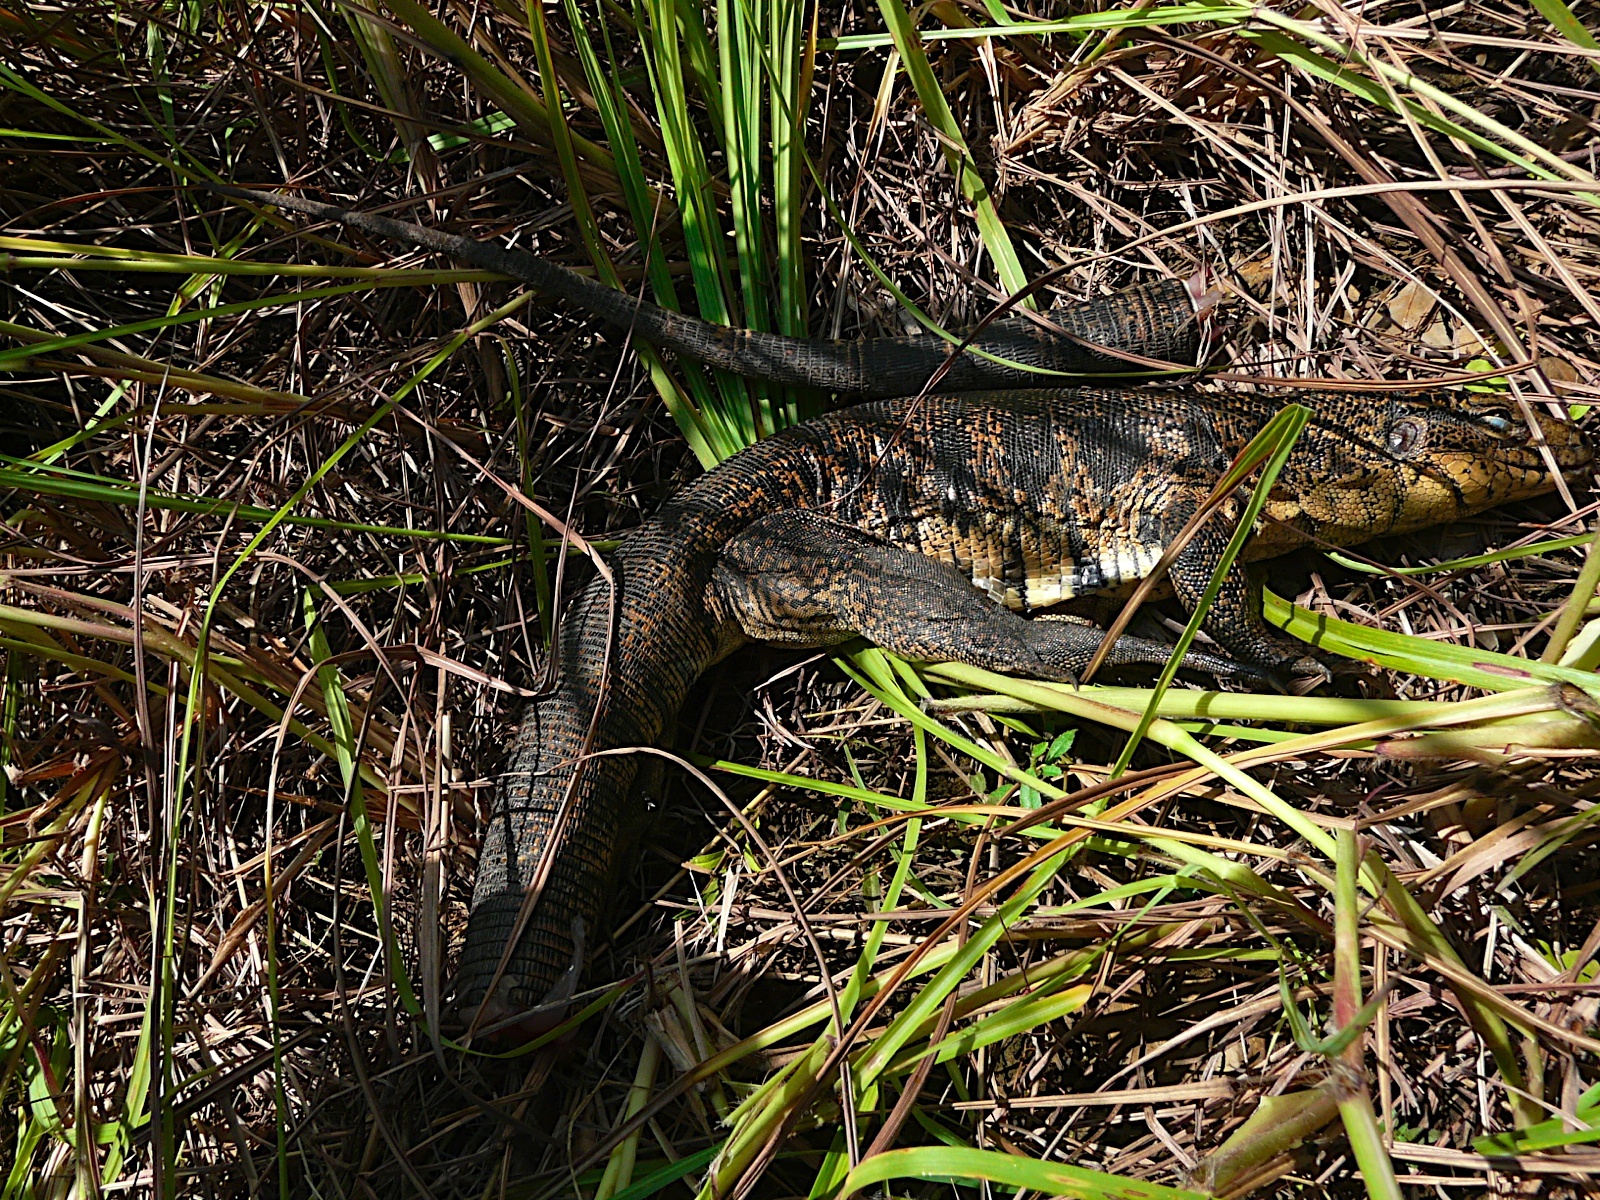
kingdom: Animalia
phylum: Chordata
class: Squamata
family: Teiidae
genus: Tupinambis
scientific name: Tupinambis cryptus
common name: Cryptic golden tegu
